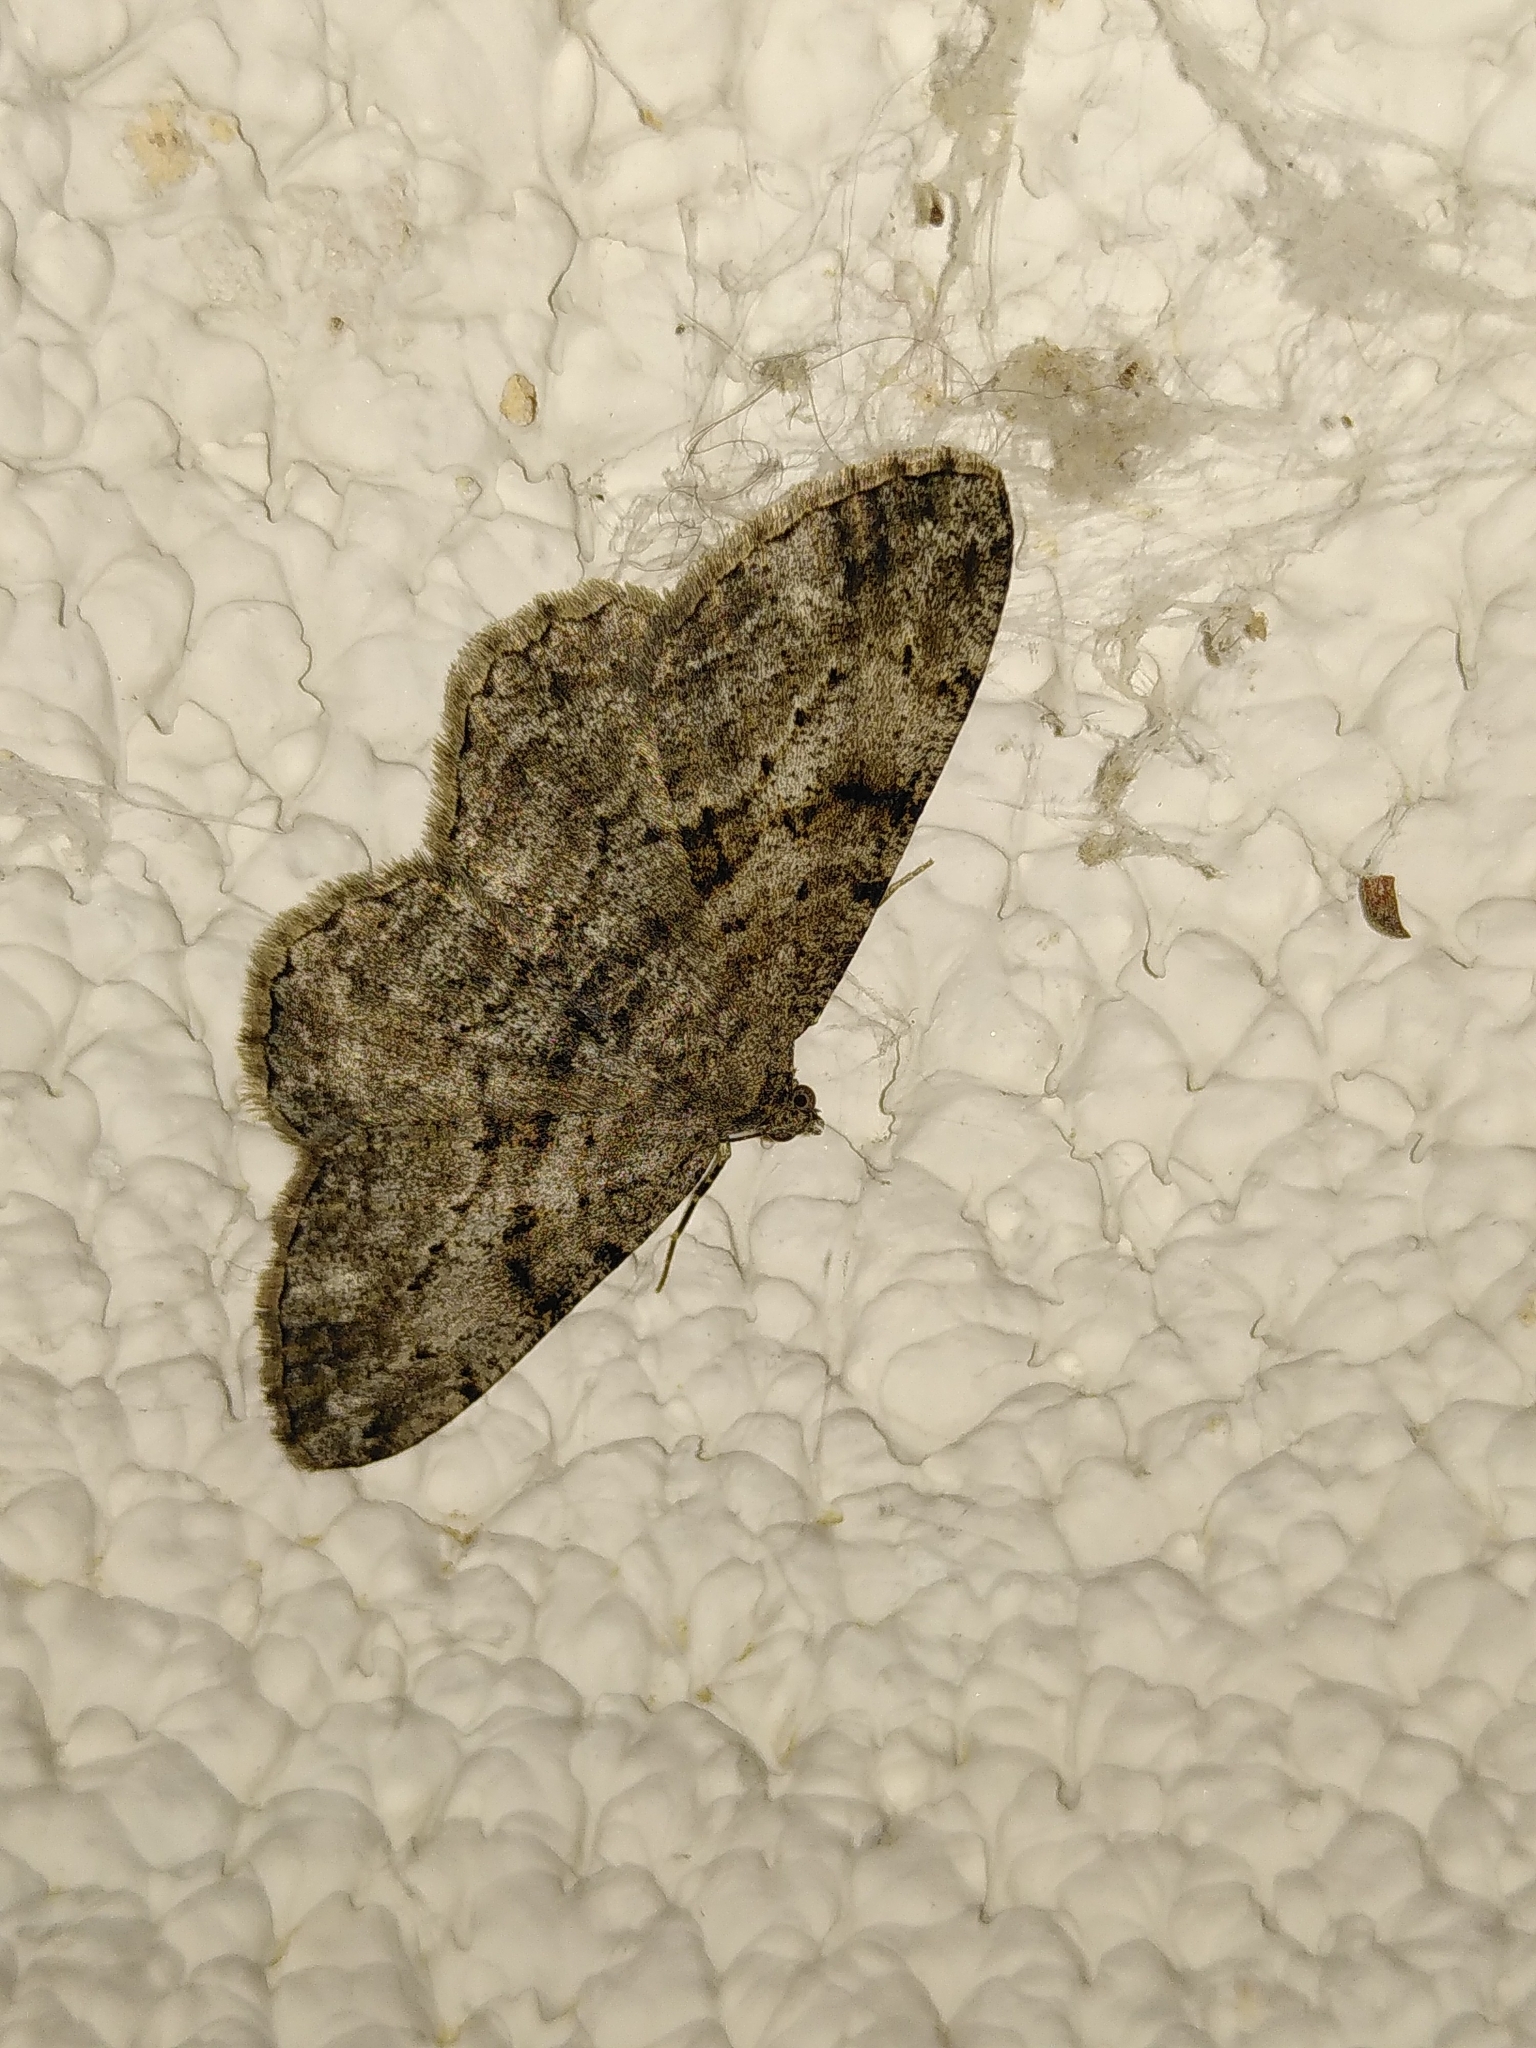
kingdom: Animalia
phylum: Arthropoda
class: Insecta
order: Lepidoptera
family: Geometridae
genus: Peribatodes
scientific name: Peribatodes rhomboidaria
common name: Willow beauty
